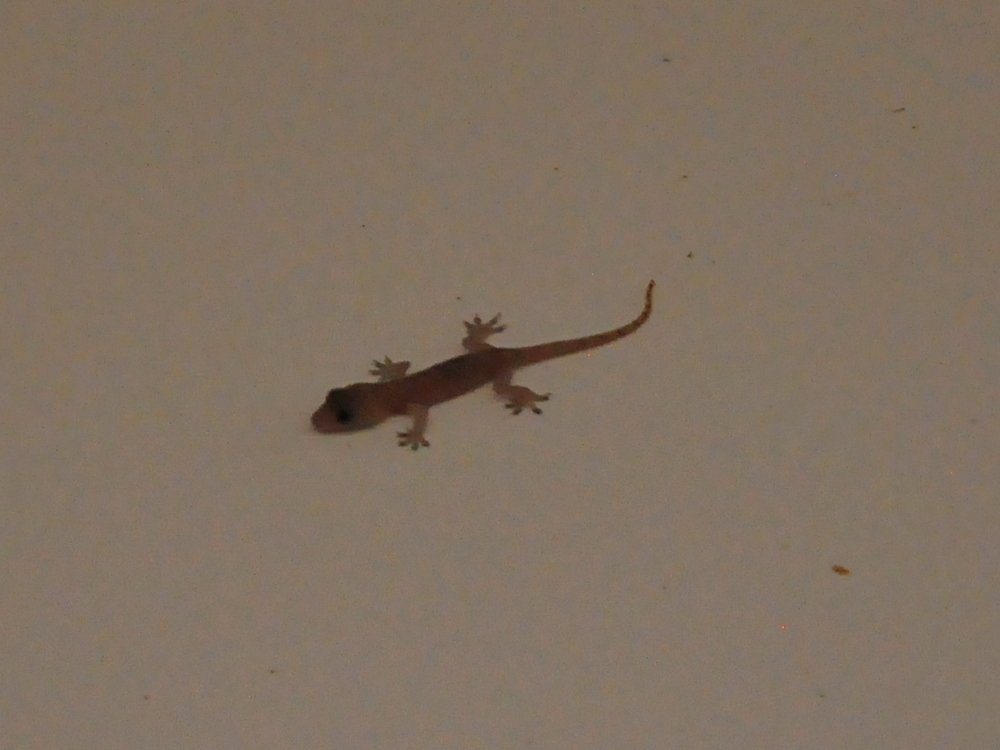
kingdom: Animalia
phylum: Chordata
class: Squamata
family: Gekkonidae
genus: Hemidactylus
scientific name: Hemidactylus frenatus
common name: Common house gecko
